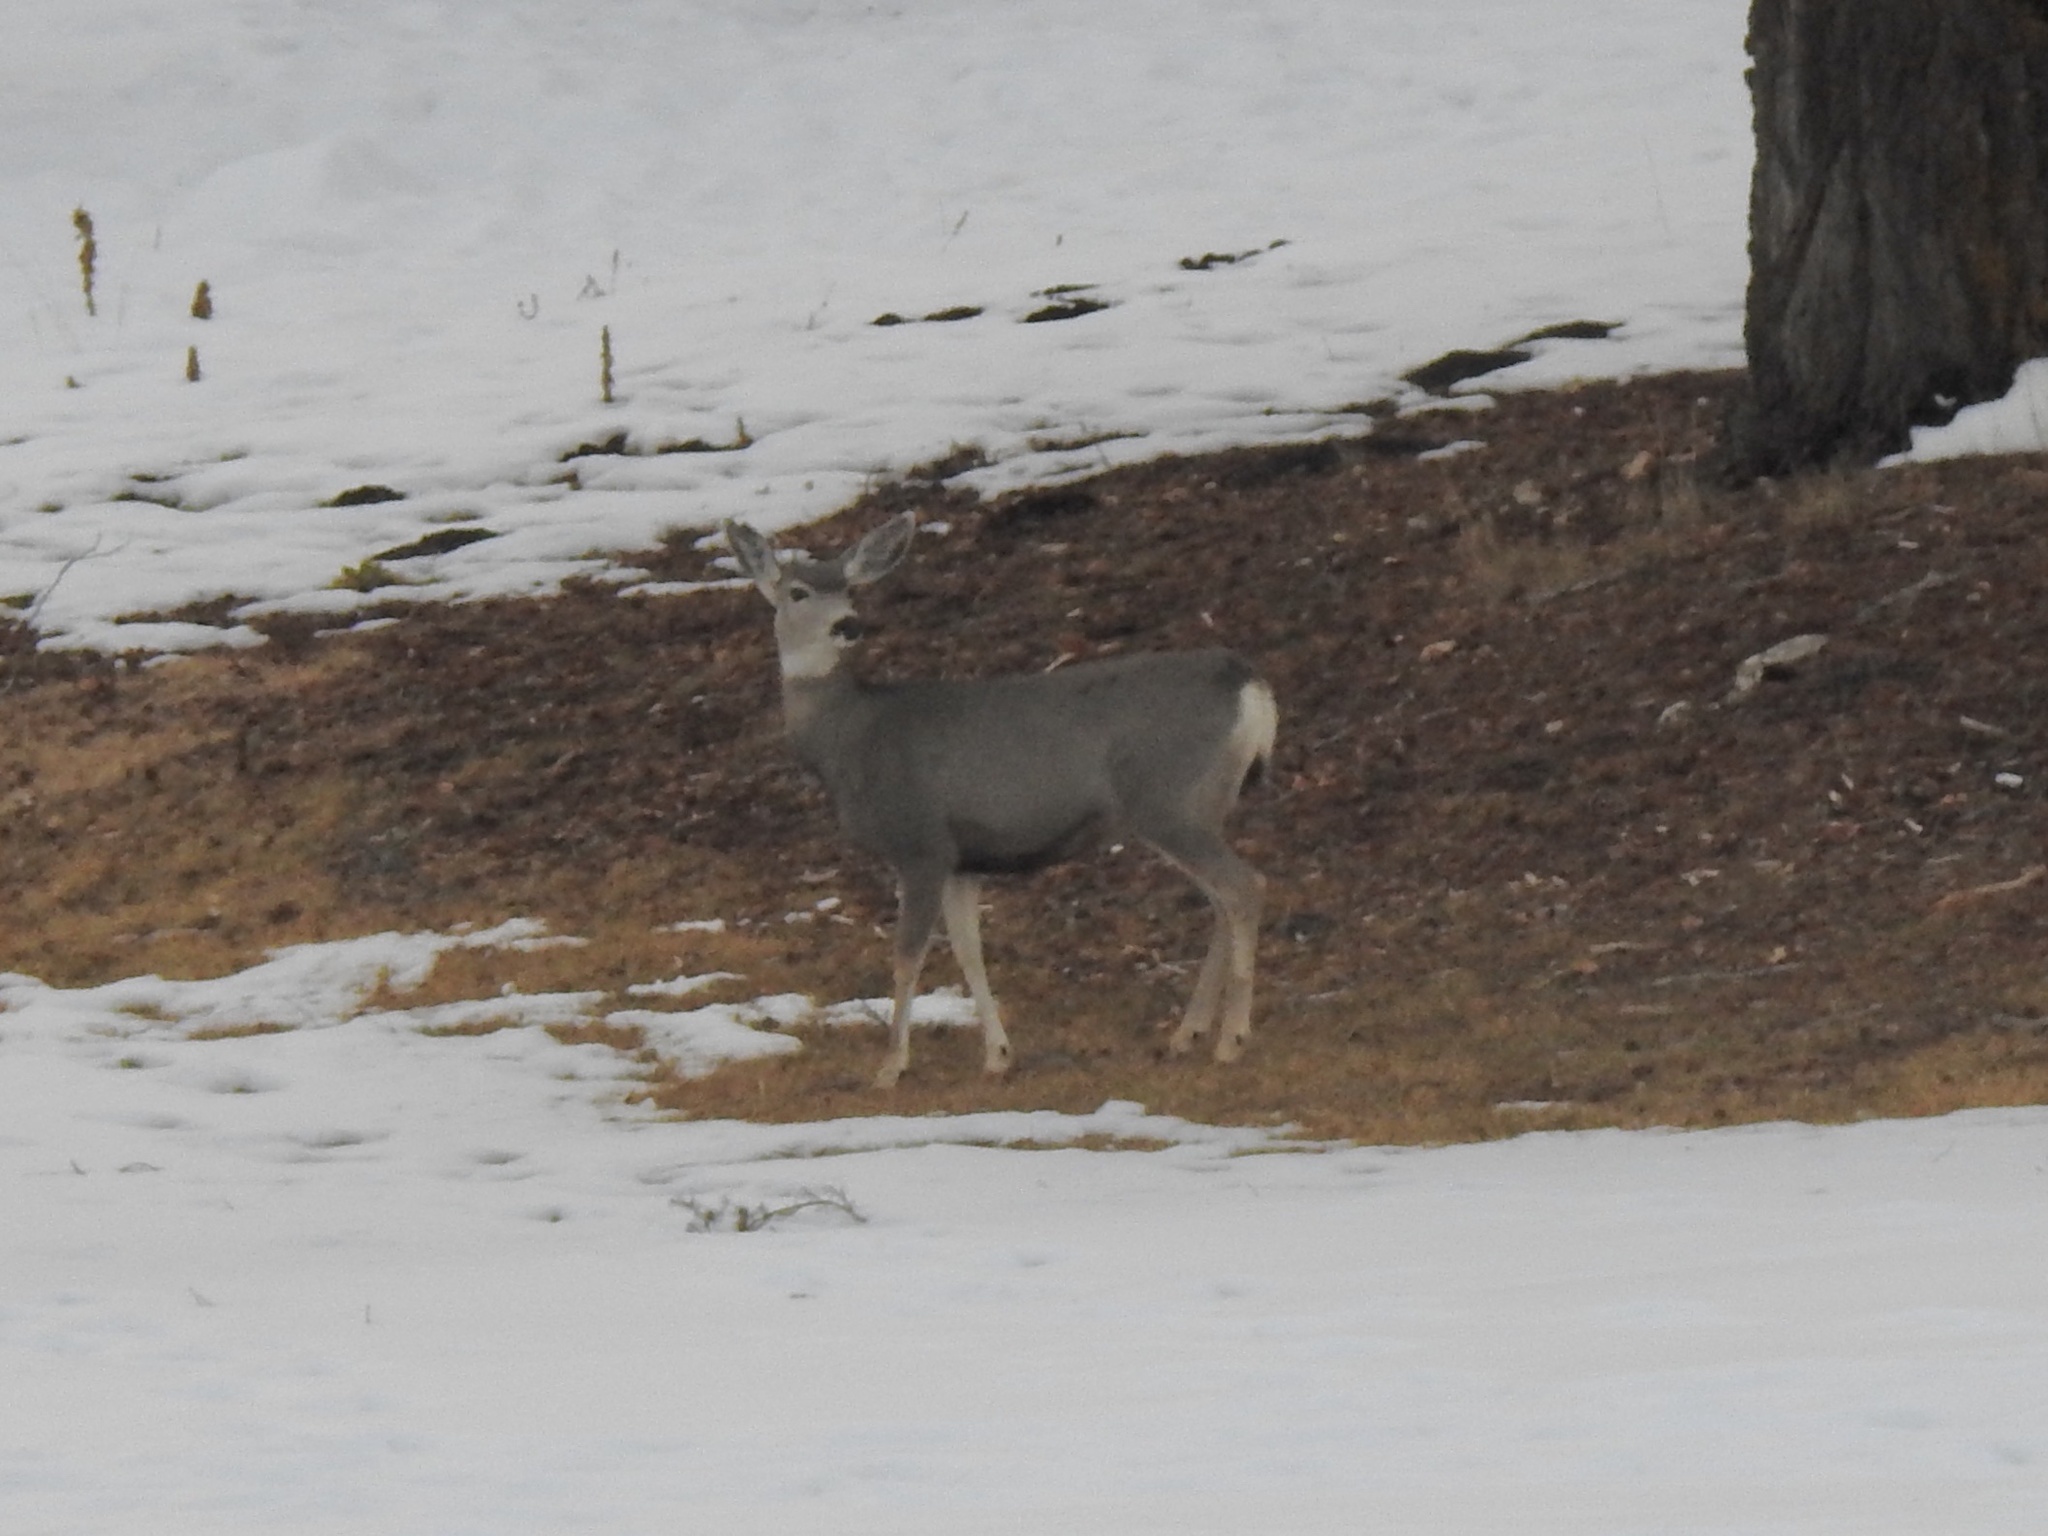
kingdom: Animalia
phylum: Chordata
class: Mammalia
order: Artiodactyla
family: Cervidae
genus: Odocoileus
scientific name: Odocoileus hemionus
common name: Mule deer
